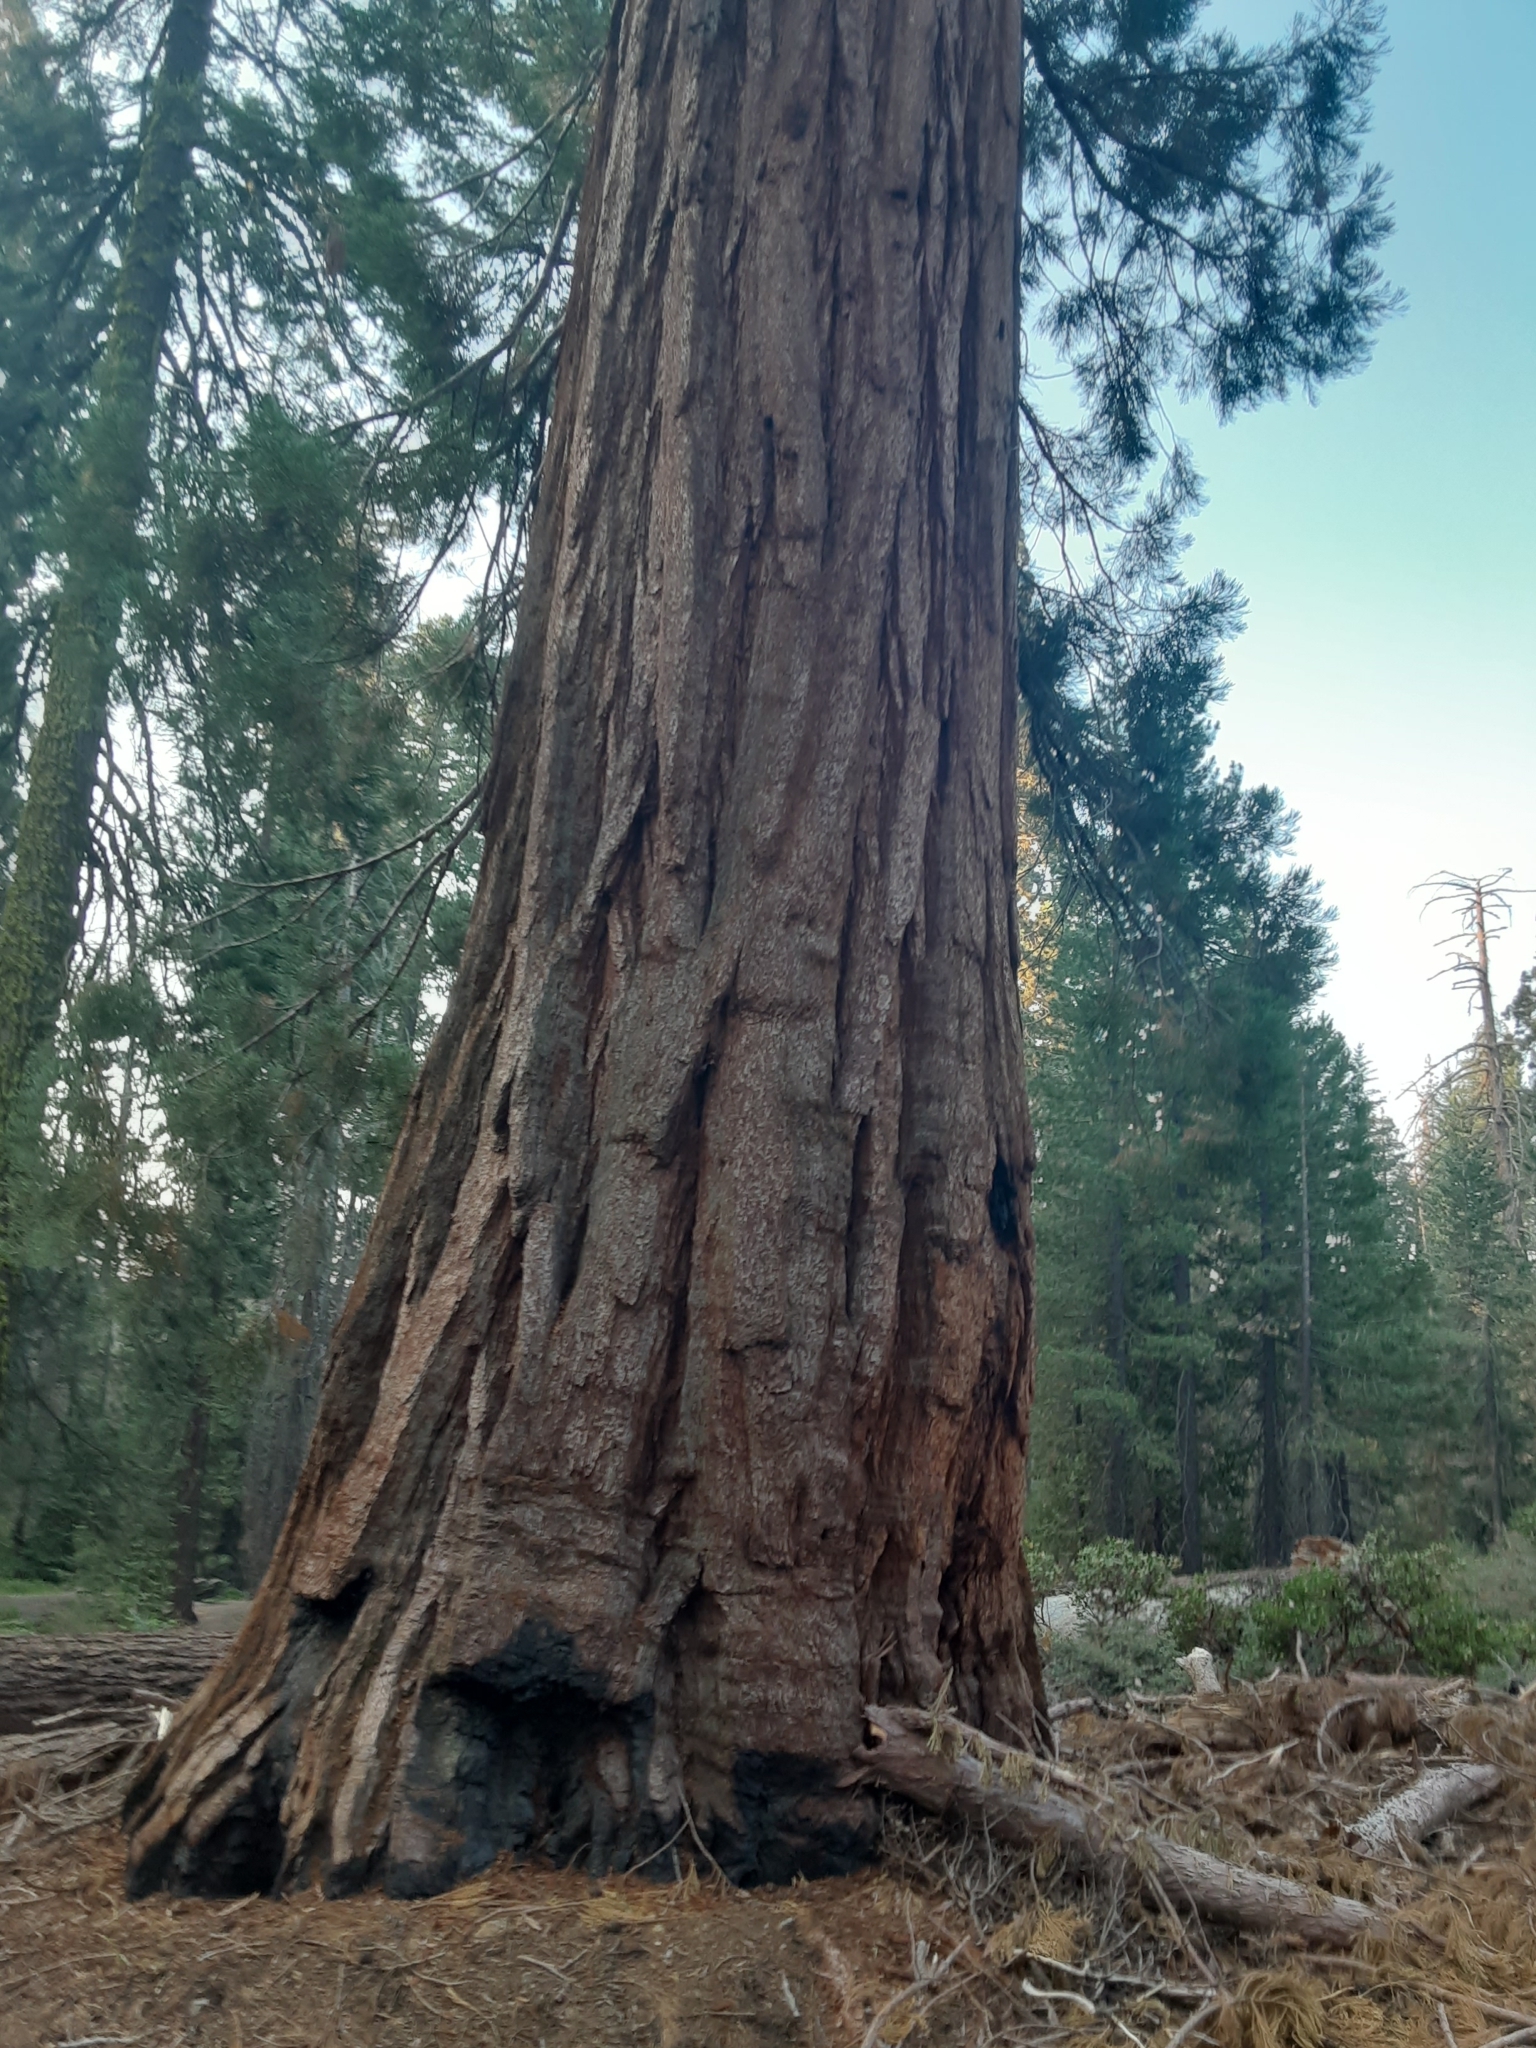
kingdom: Plantae
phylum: Tracheophyta
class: Pinopsida
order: Pinales
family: Cupressaceae
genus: Sequoiadendron
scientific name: Sequoiadendron giganteum
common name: Wellingtonia
